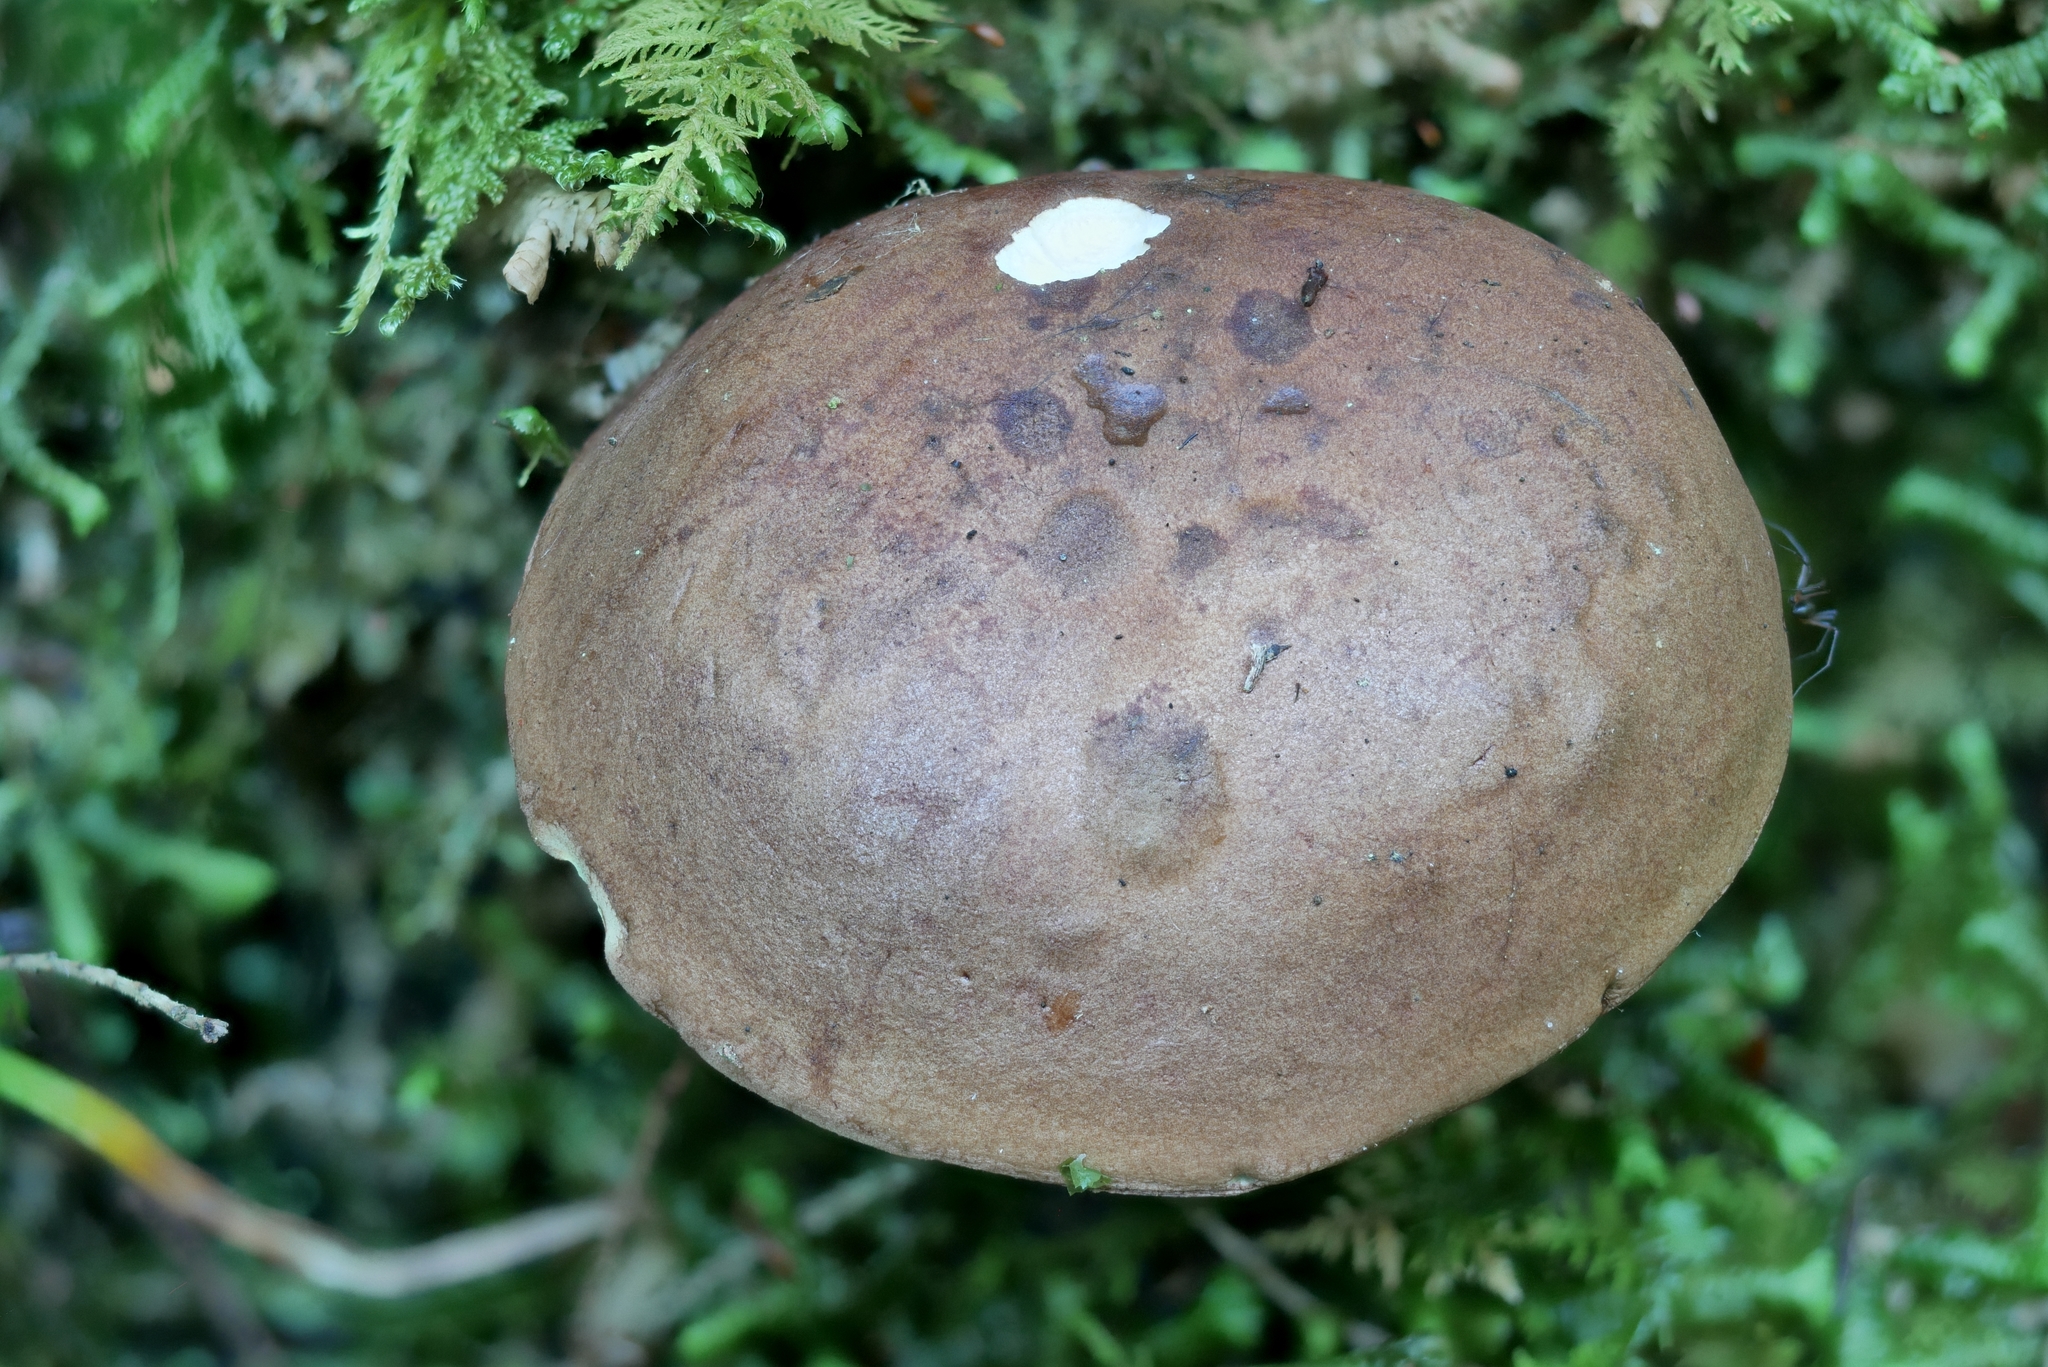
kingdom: Fungi
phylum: Basidiomycota
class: Agaricomycetes
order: Boletales
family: Boletaceae
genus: Imleria
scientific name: Imleria badia
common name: Bay bolete
